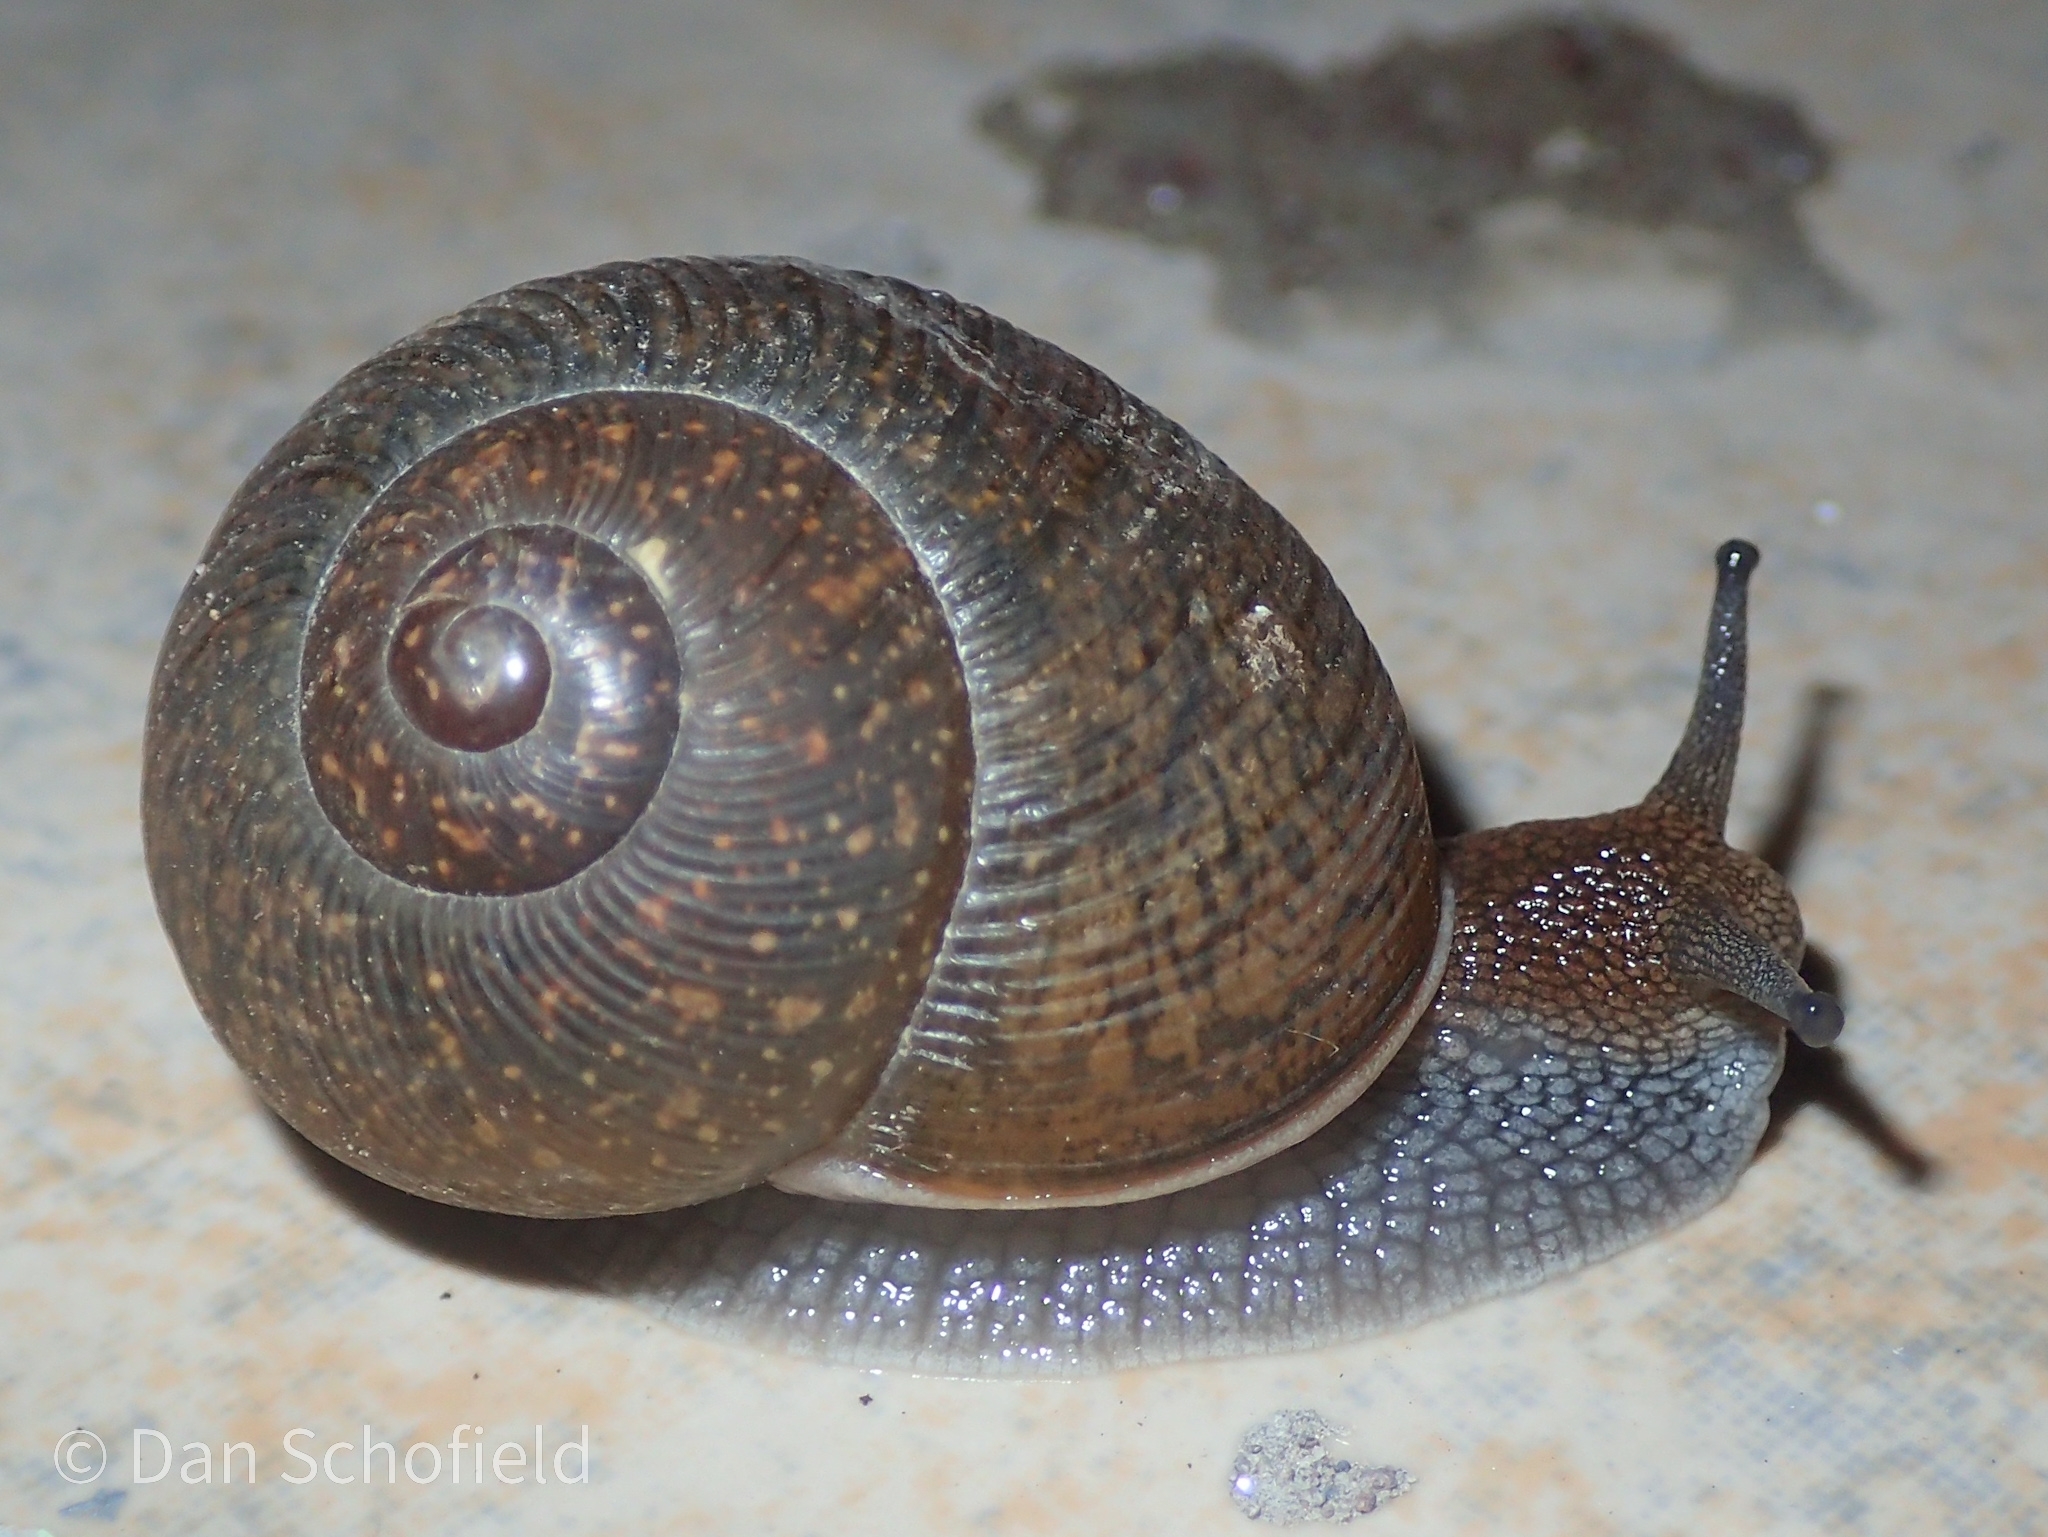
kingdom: Animalia
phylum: Mollusca
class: Gastropoda
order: Stylommatophora
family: Zachrysiidae
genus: Zachrysia
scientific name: Zachrysia provisoria
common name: Garden zachrysia
